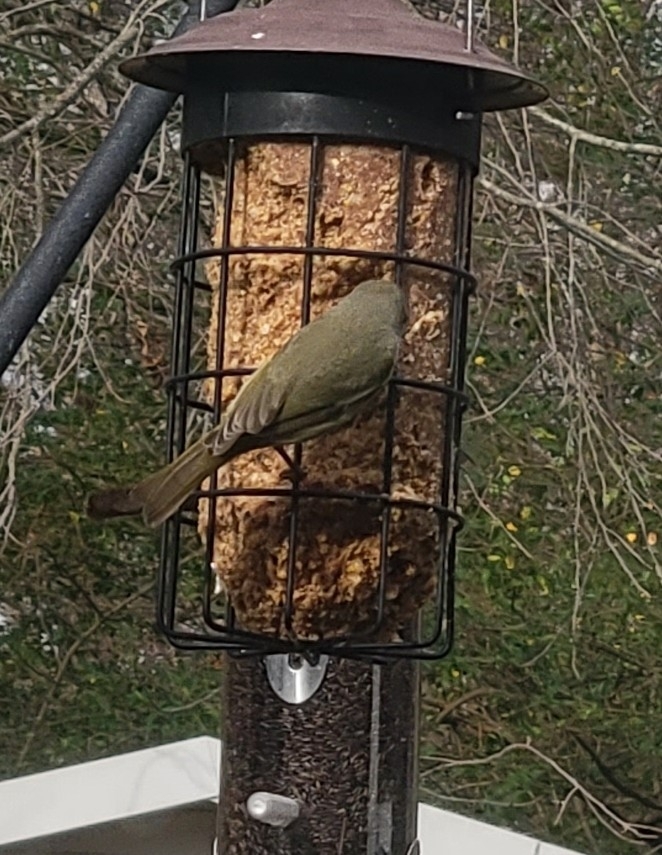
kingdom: Animalia
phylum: Chordata
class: Aves
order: Passeriformes
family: Parulidae
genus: Leiothlypis
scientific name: Leiothlypis celata
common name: Orange-crowned warbler
